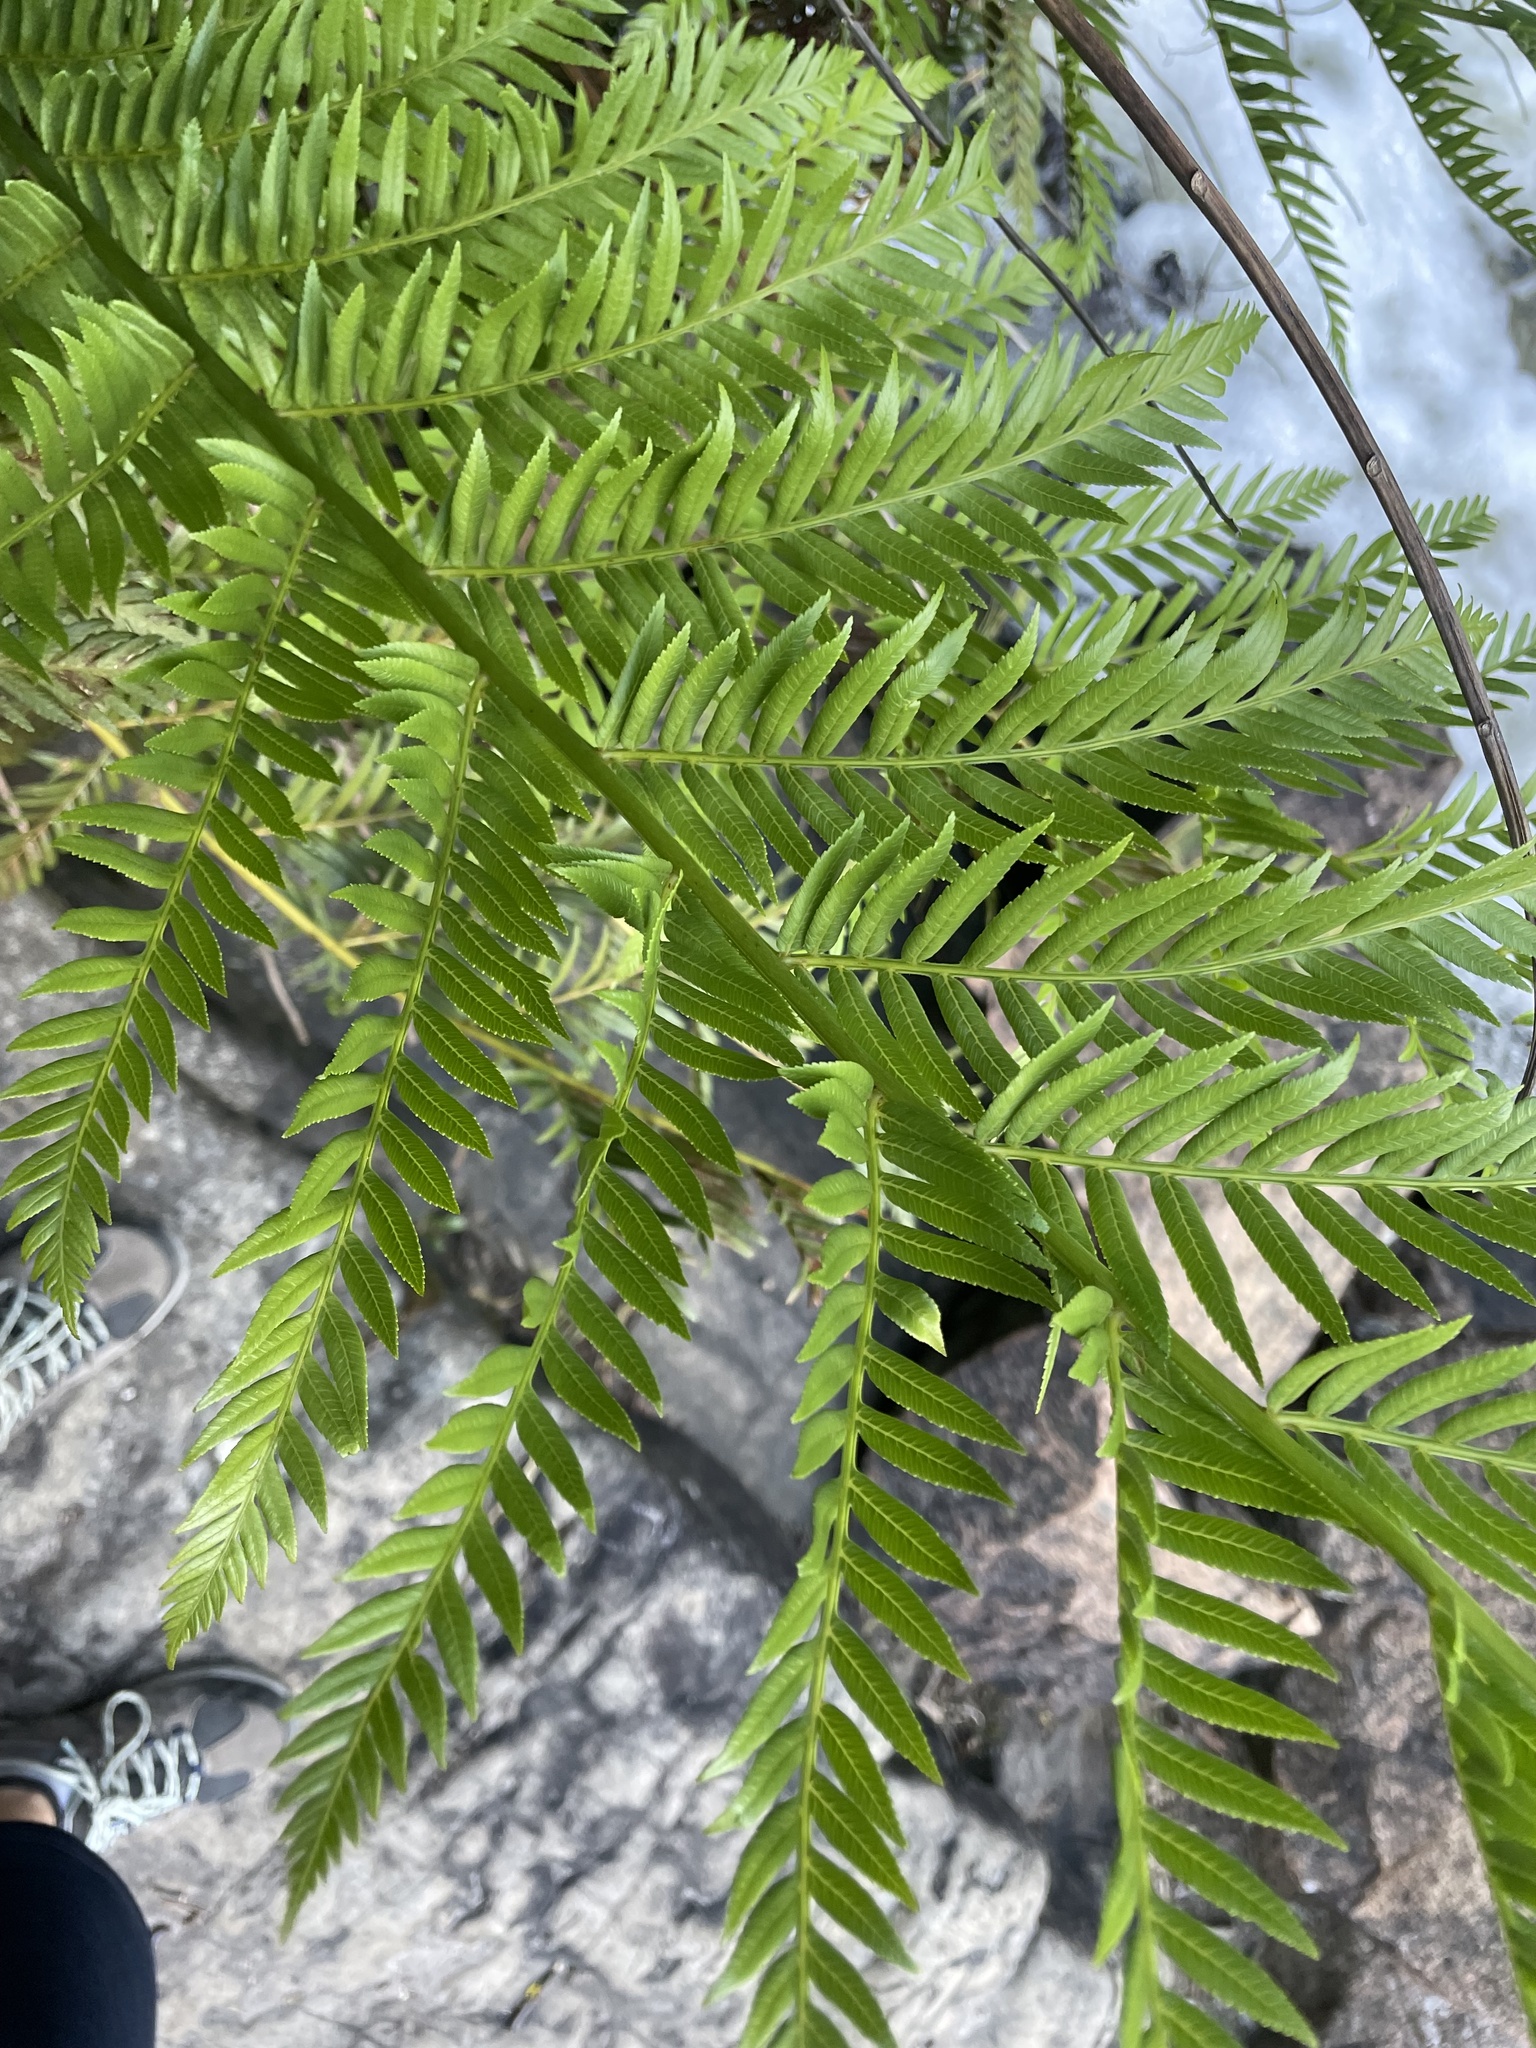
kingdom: Plantae
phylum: Tracheophyta
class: Polypodiopsida
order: Osmundales
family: Osmundaceae
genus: Todea
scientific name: Todea barbara
